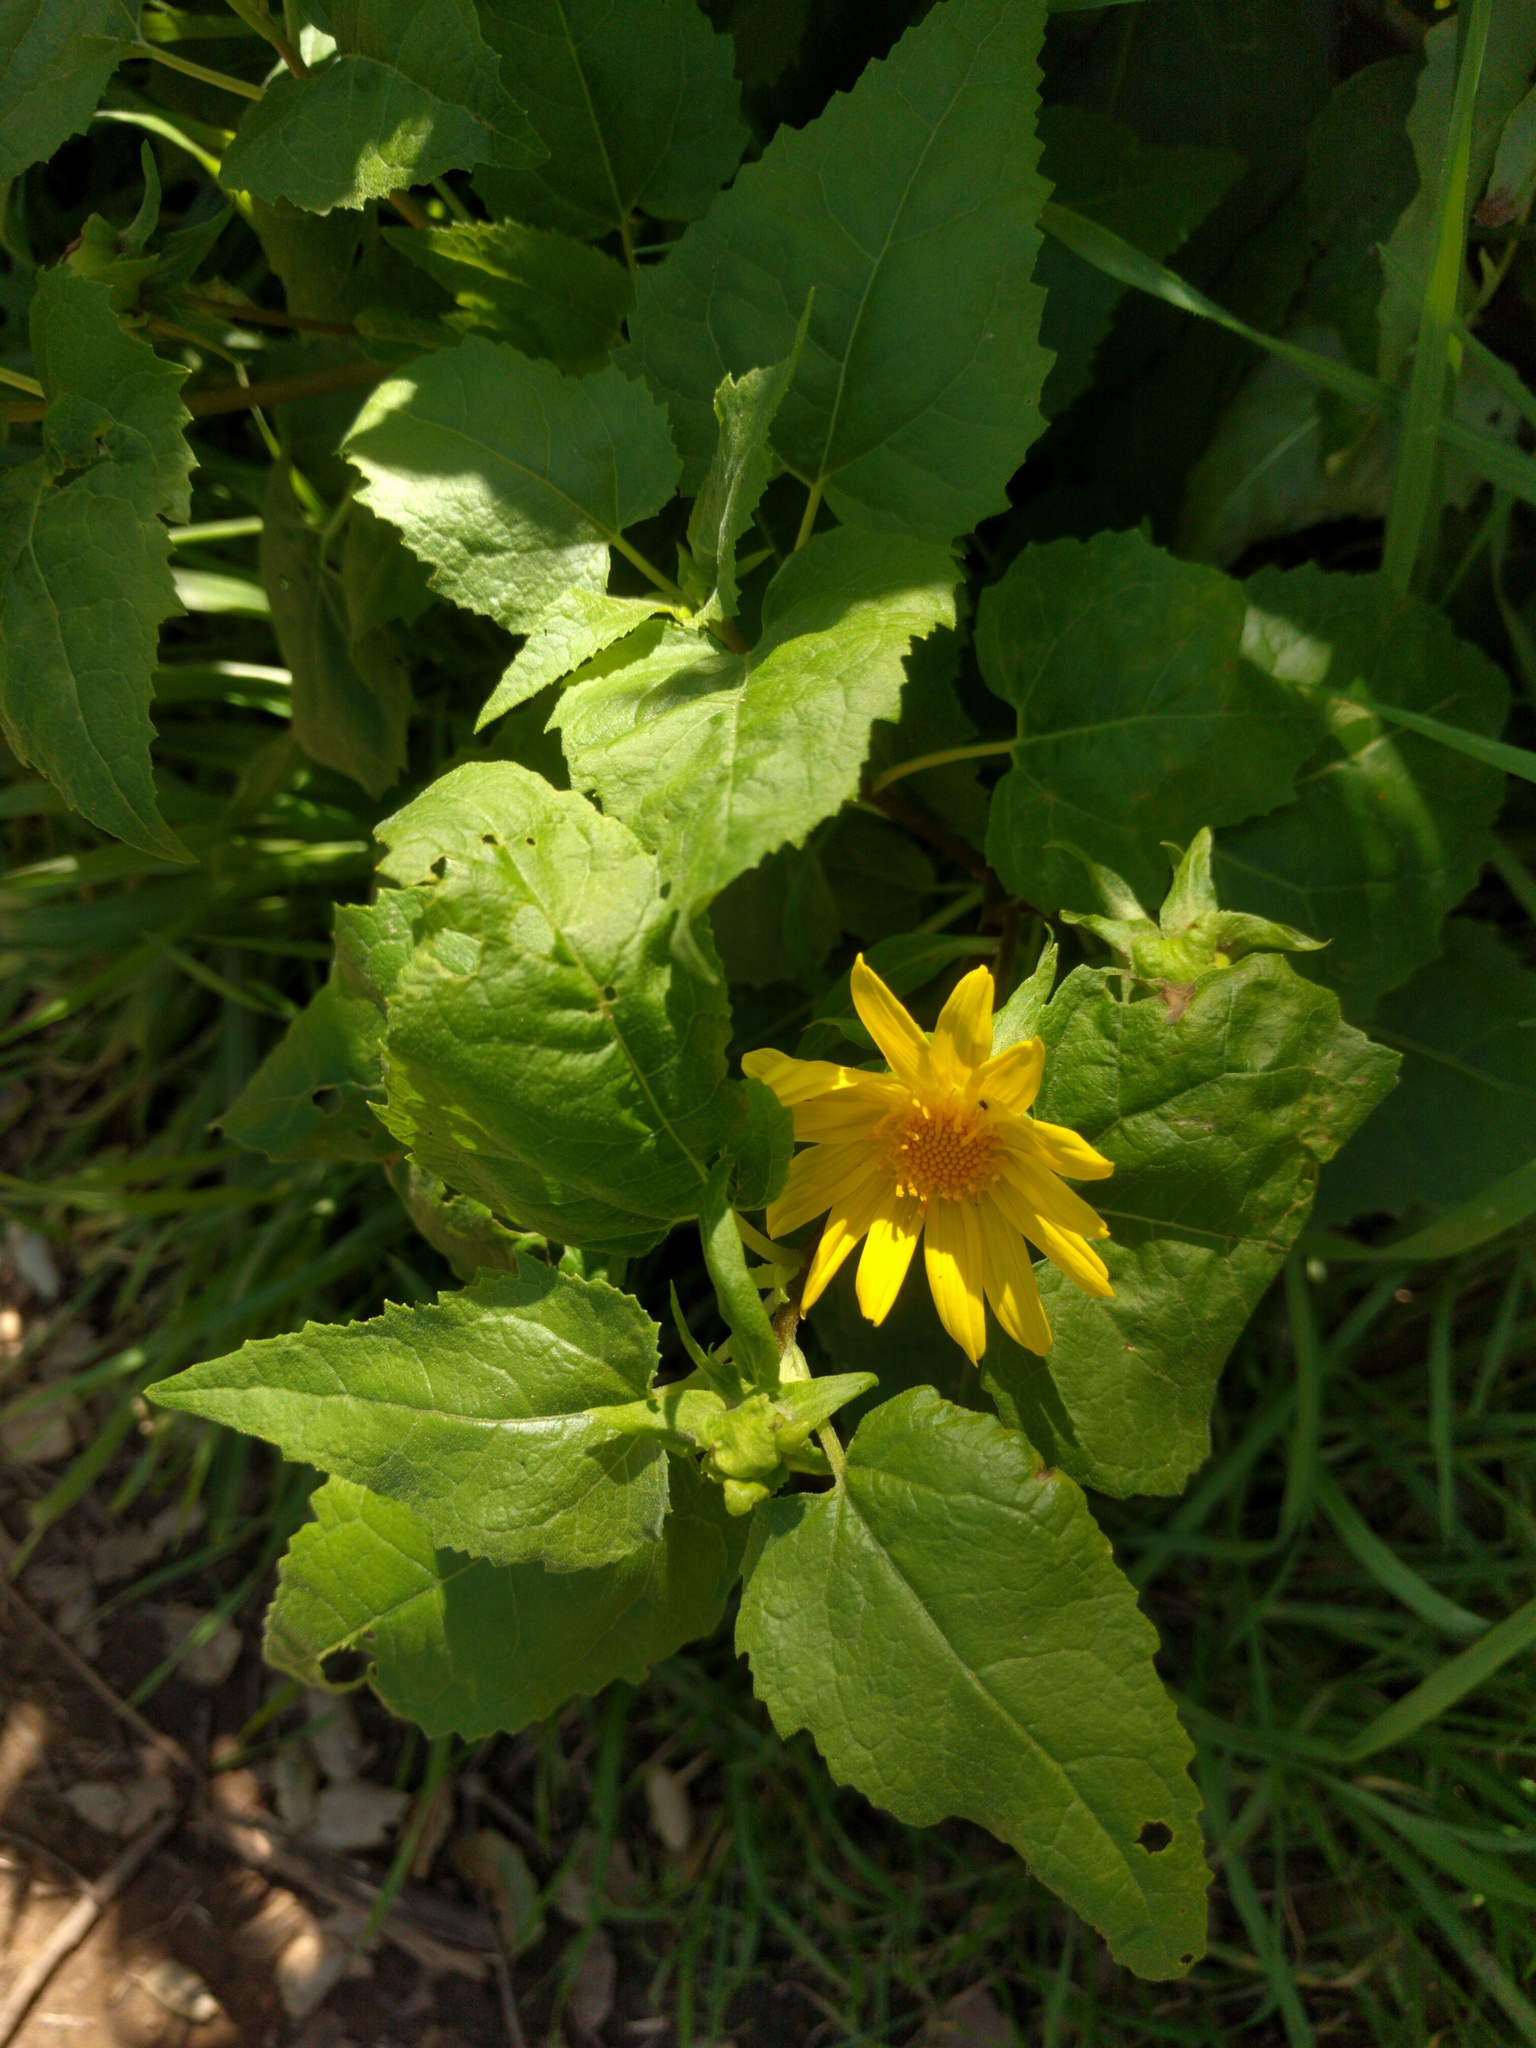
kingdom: Plantae
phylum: Tracheophyta
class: Magnoliopsida
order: Asterales
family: Asteraceae
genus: Venegasia
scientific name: Venegasia carpesioides
